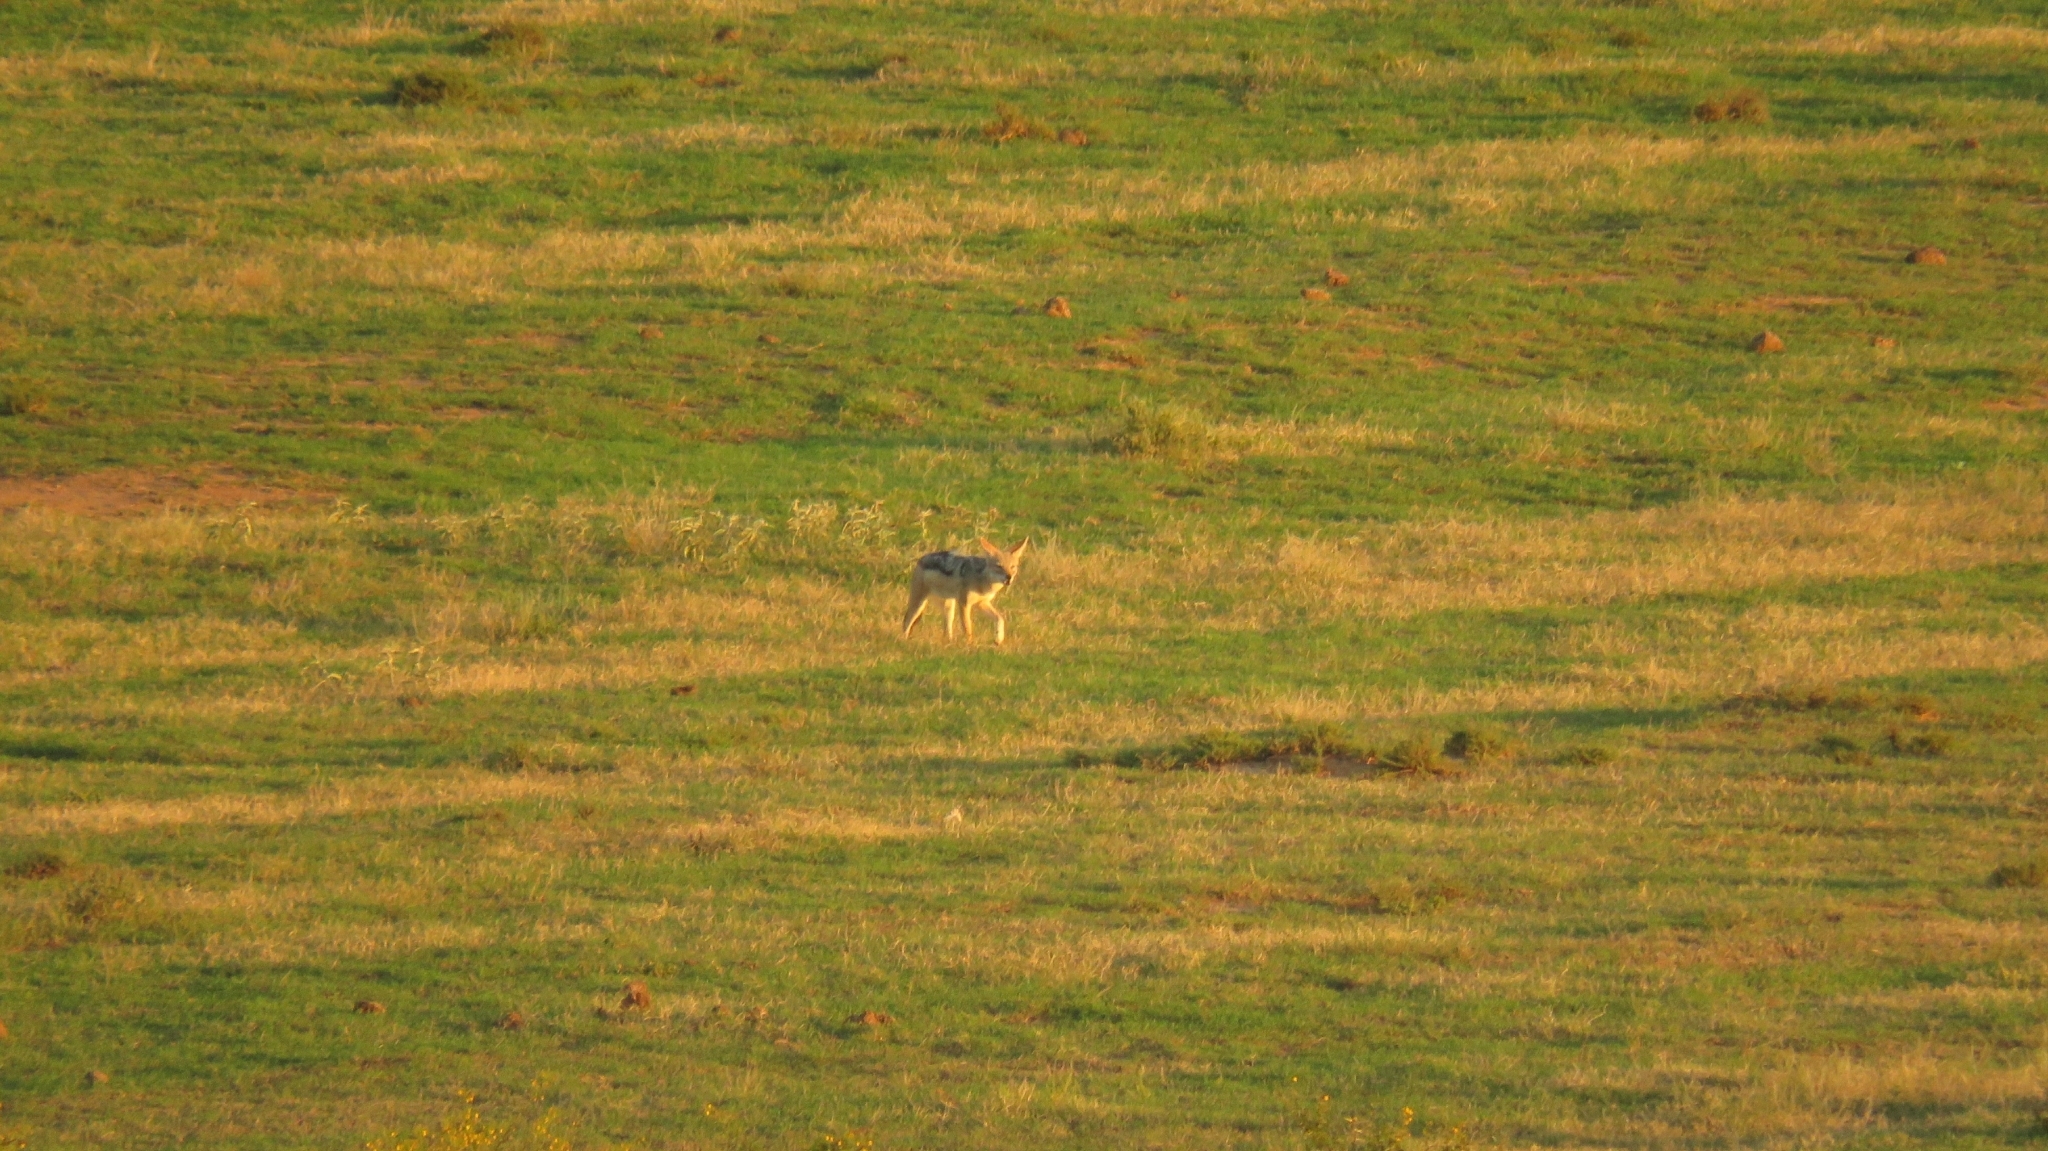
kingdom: Animalia
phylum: Chordata
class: Mammalia
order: Carnivora
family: Canidae
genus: Lupulella
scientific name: Lupulella
